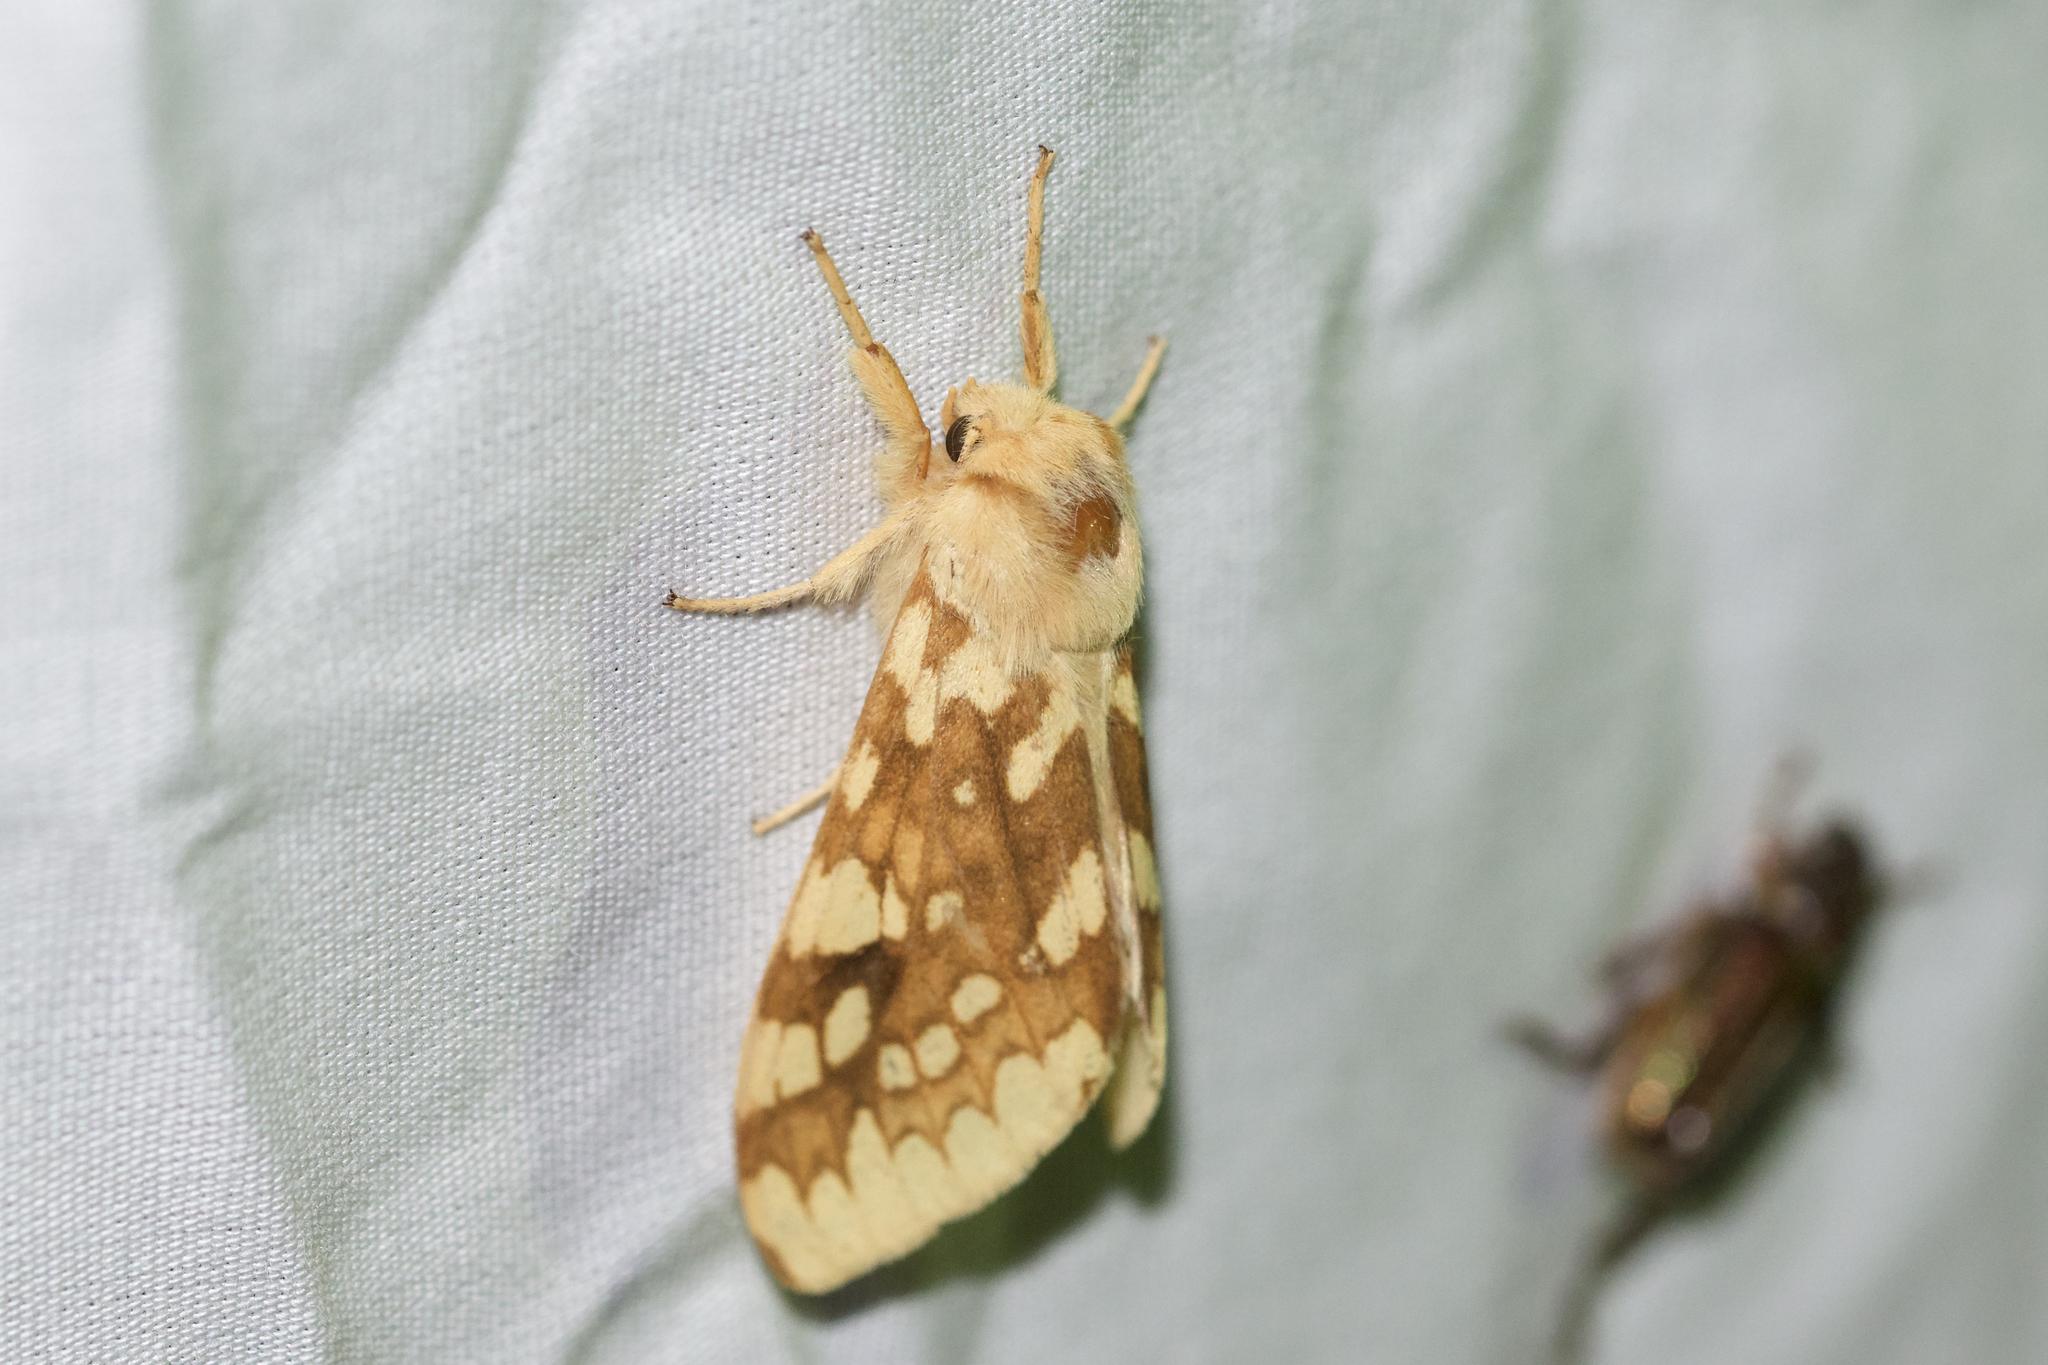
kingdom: Animalia
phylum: Arthropoda
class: Insecta
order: Lepidoptera
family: Erebidae
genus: Lophocampa
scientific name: Lophocampa maculata
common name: Spotted tussock moth
